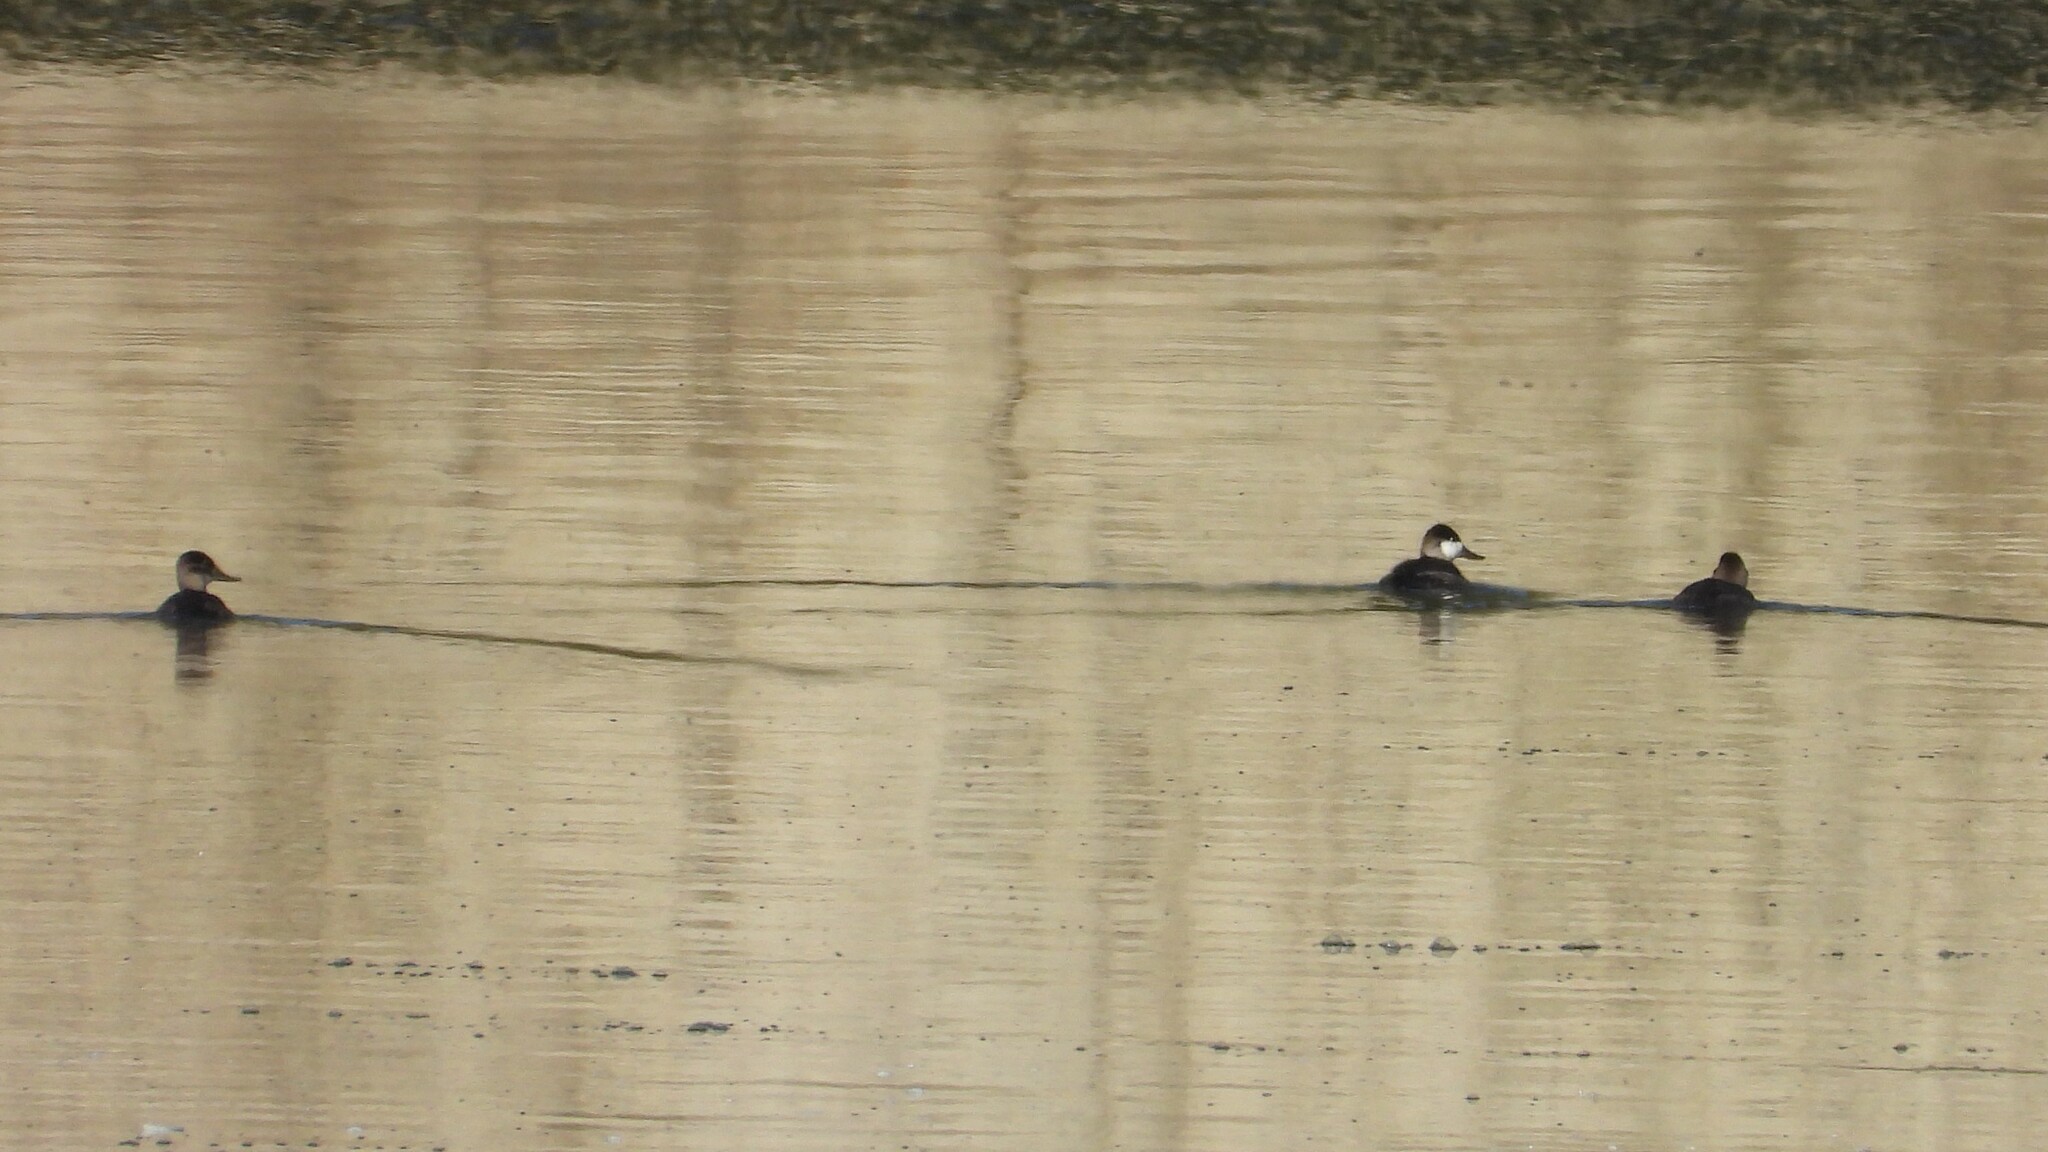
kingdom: Animalia
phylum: Chordata
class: Aves
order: Anseriformes
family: Anatidae
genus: Oxyura
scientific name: Oxyura jamaicensis
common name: Ruddy duck
